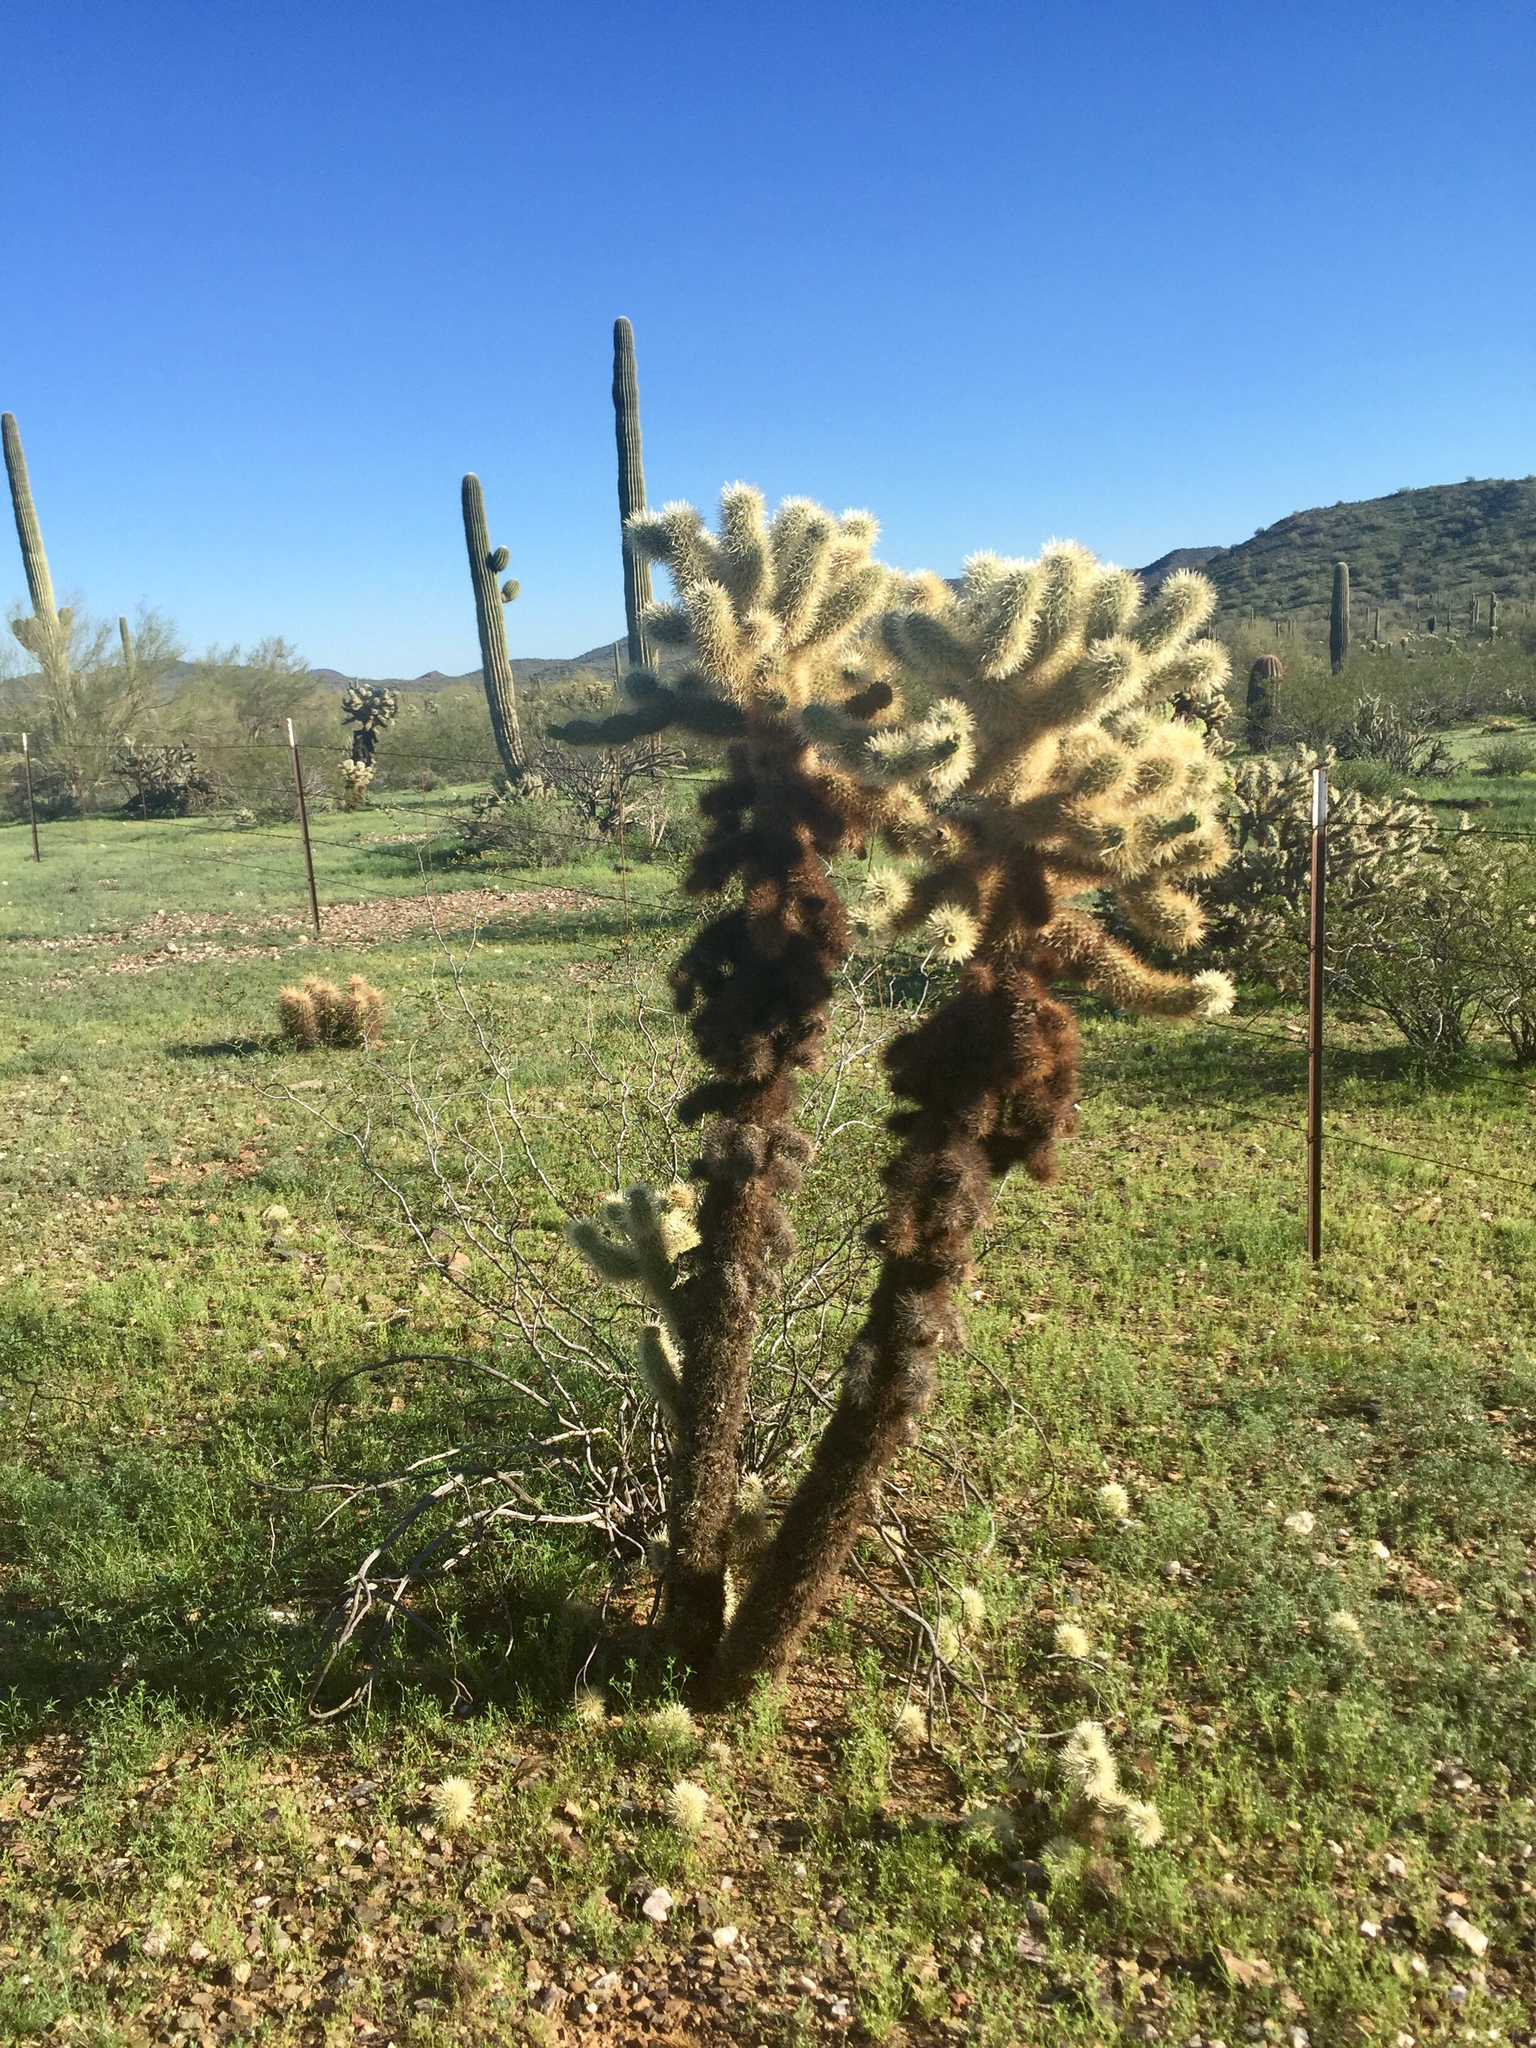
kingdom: Plantae
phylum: Tracheophyta
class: Magnoliopsida
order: Caryophyllales
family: Cactaceae
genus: Cylindropuntia
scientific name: Cylindropuntia fosbergii
